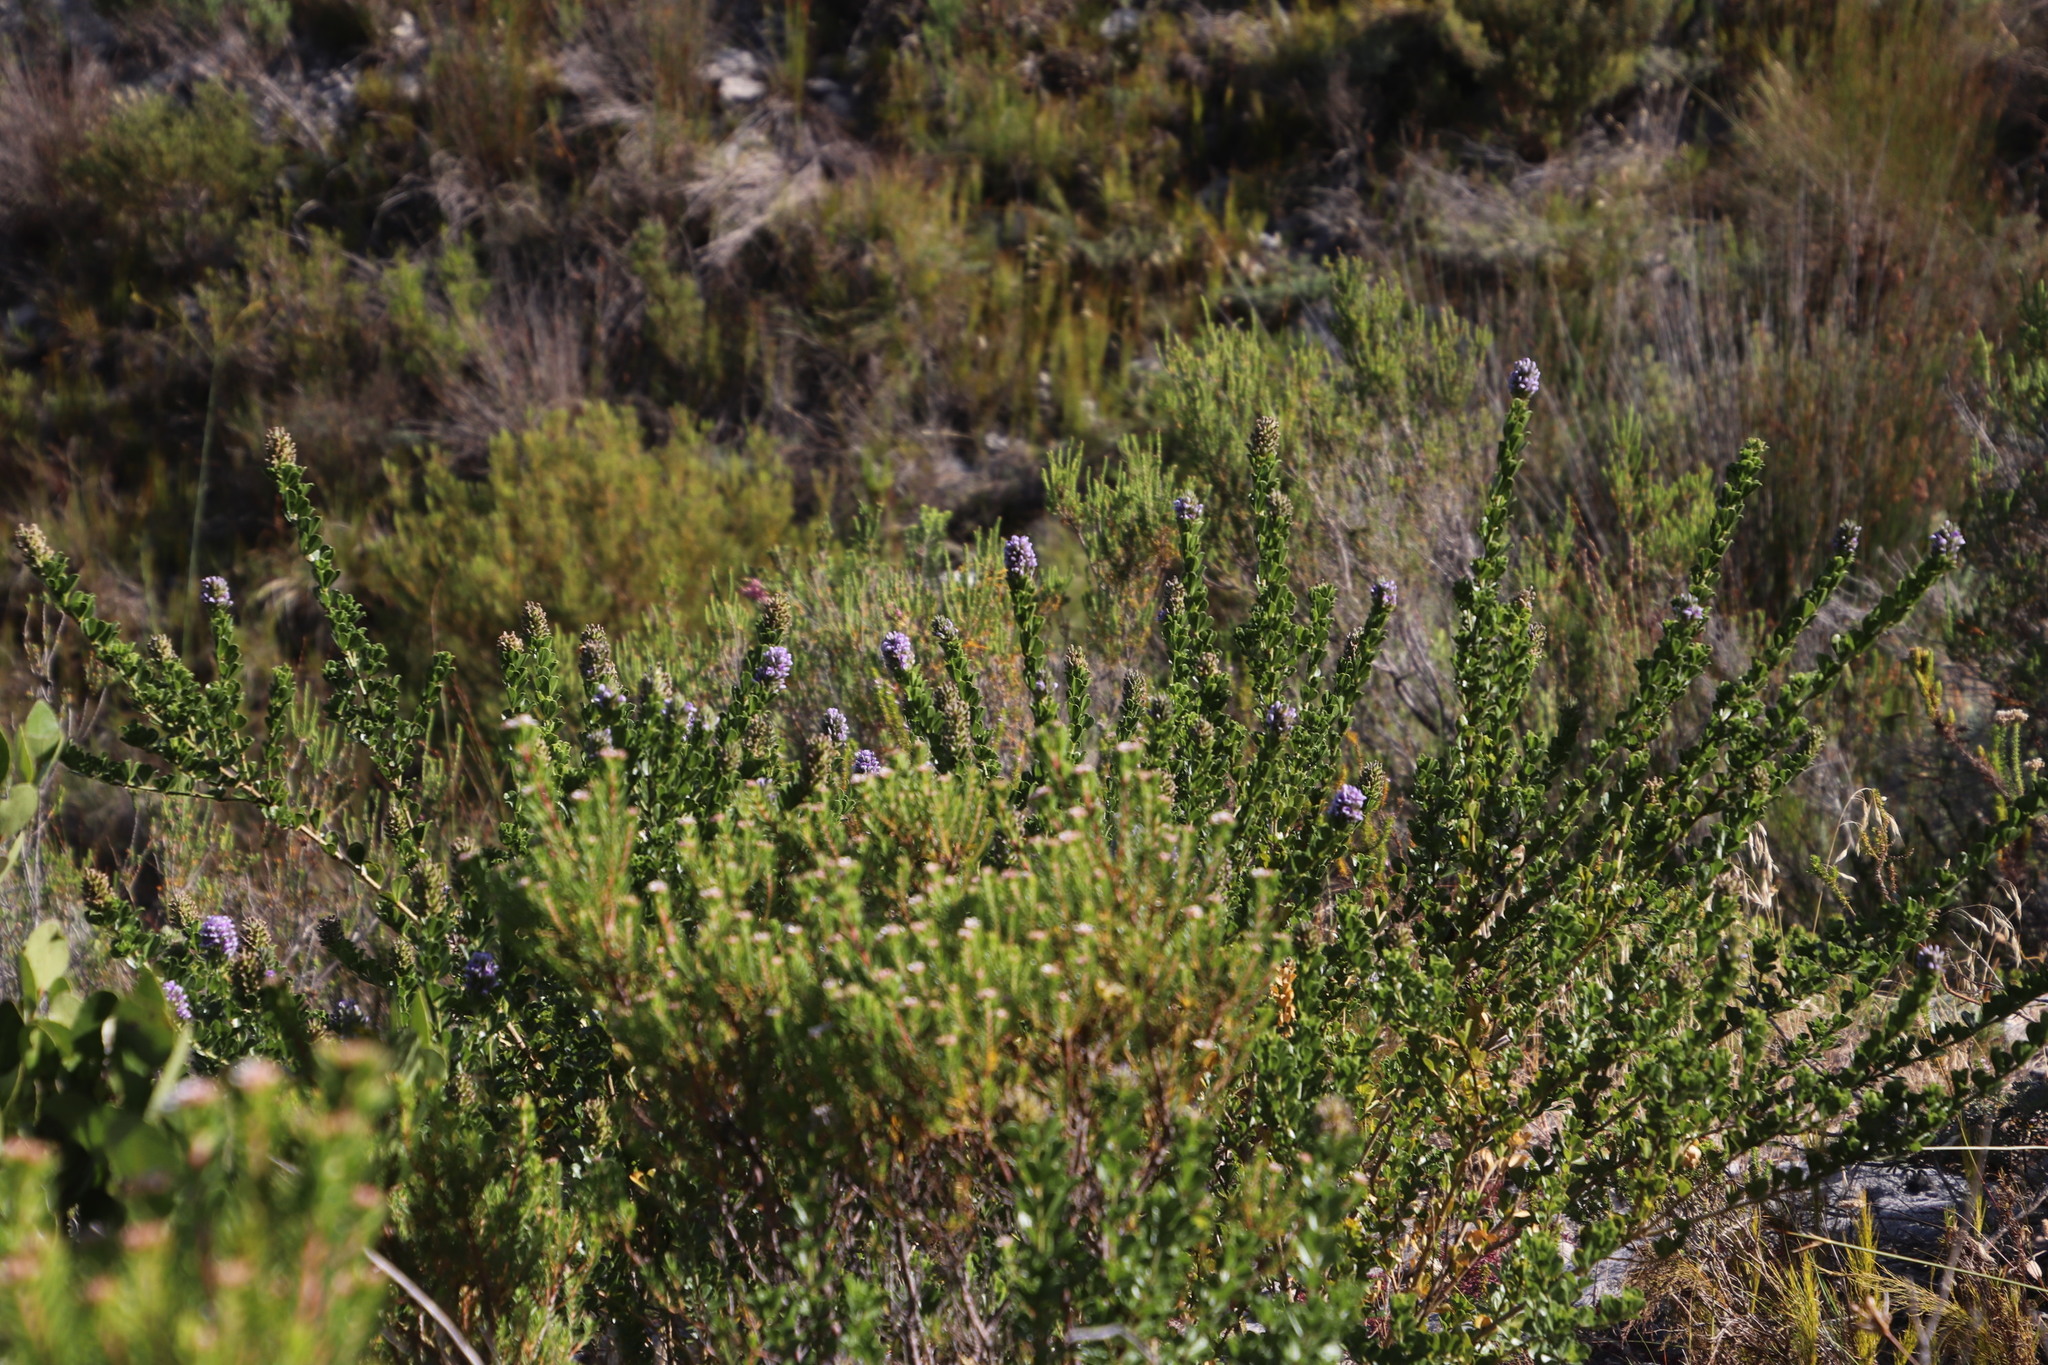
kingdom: Plantae
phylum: Tracheophyta
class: Magnoliopsida
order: Fabales
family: Fabaceae
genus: Psoralea
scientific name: Psoralea bracteolata
